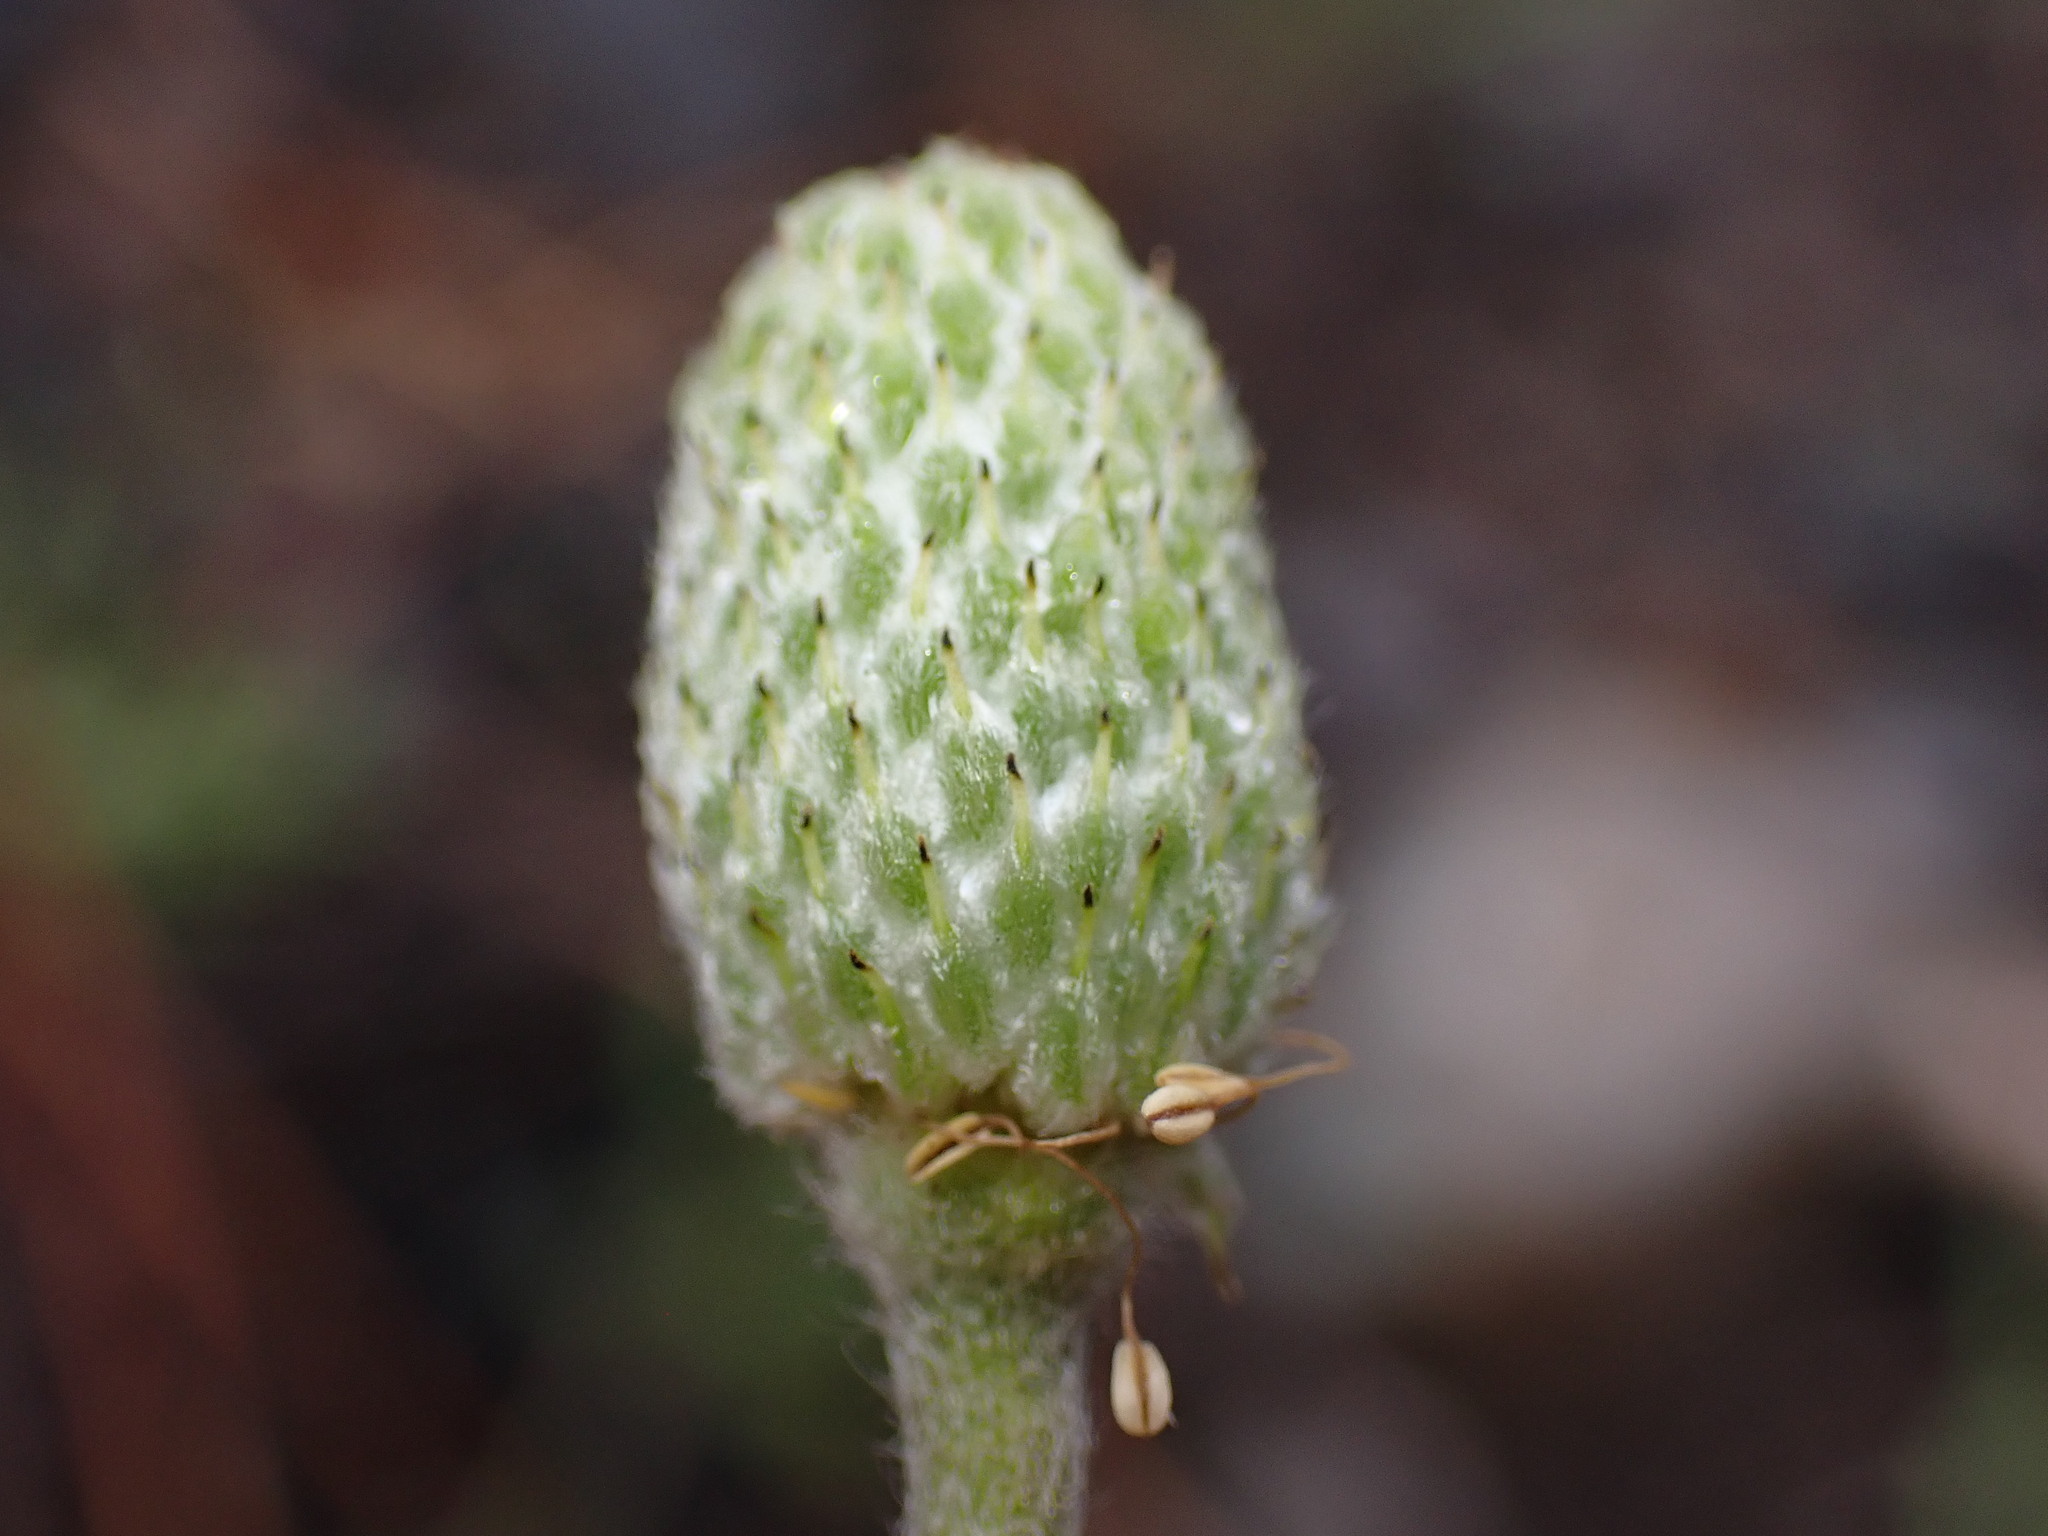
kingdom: Plantae
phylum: Tracheophyta
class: Magnoliopsida
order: Ranunculales
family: Ranunculaceae
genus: Anemone
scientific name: Anemone multifida
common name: Bird's-foot anemone
